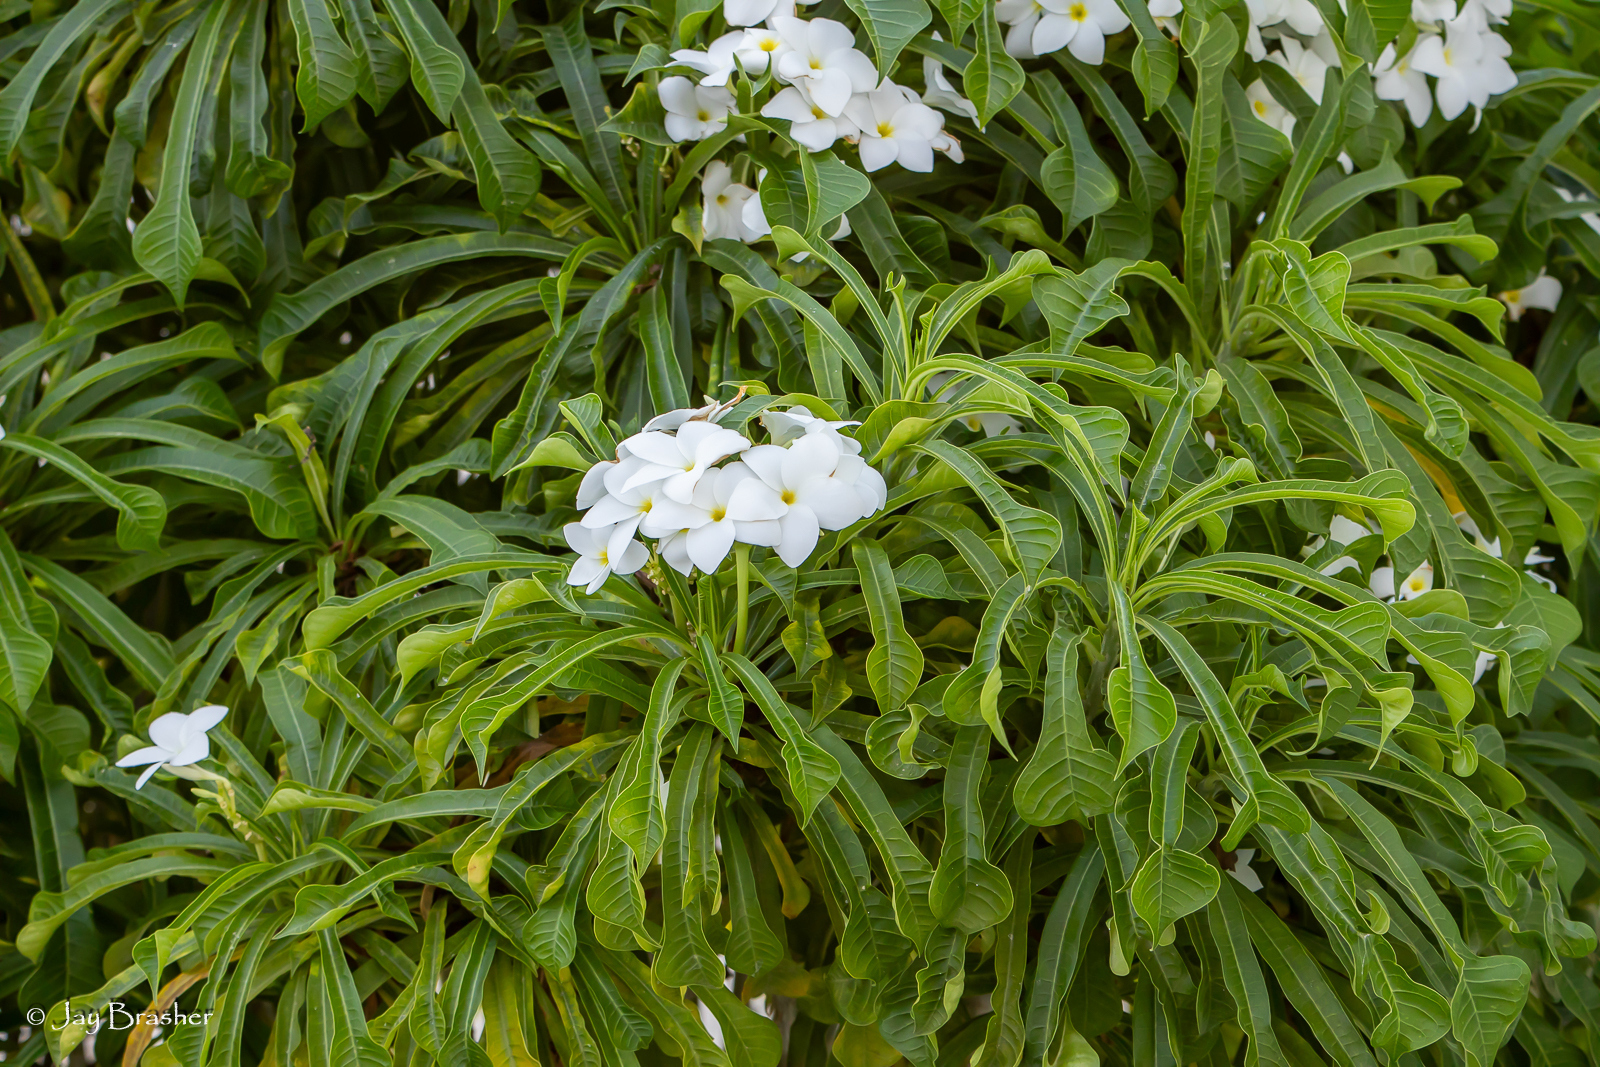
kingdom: Plantae
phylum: Tracheophyta
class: Magnoliopsida
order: Gentianales
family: Apocynaceae
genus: Plumeria
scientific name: Plumeria pudica
